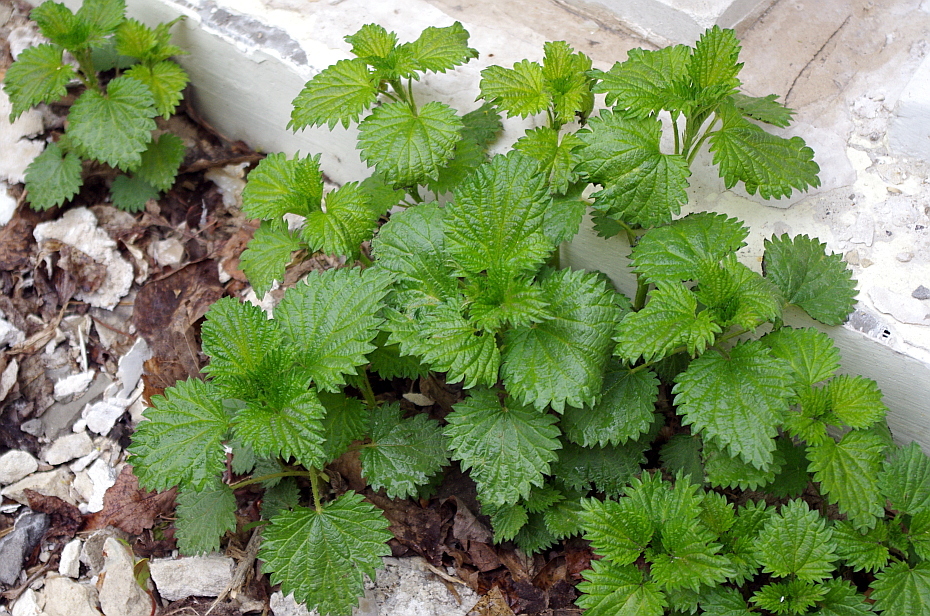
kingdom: Plantae
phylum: Tracheophyta
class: Magnoliopsida
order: Rosales
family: Urticaceae
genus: Urtica
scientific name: Urtica dioica
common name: Common nettle
